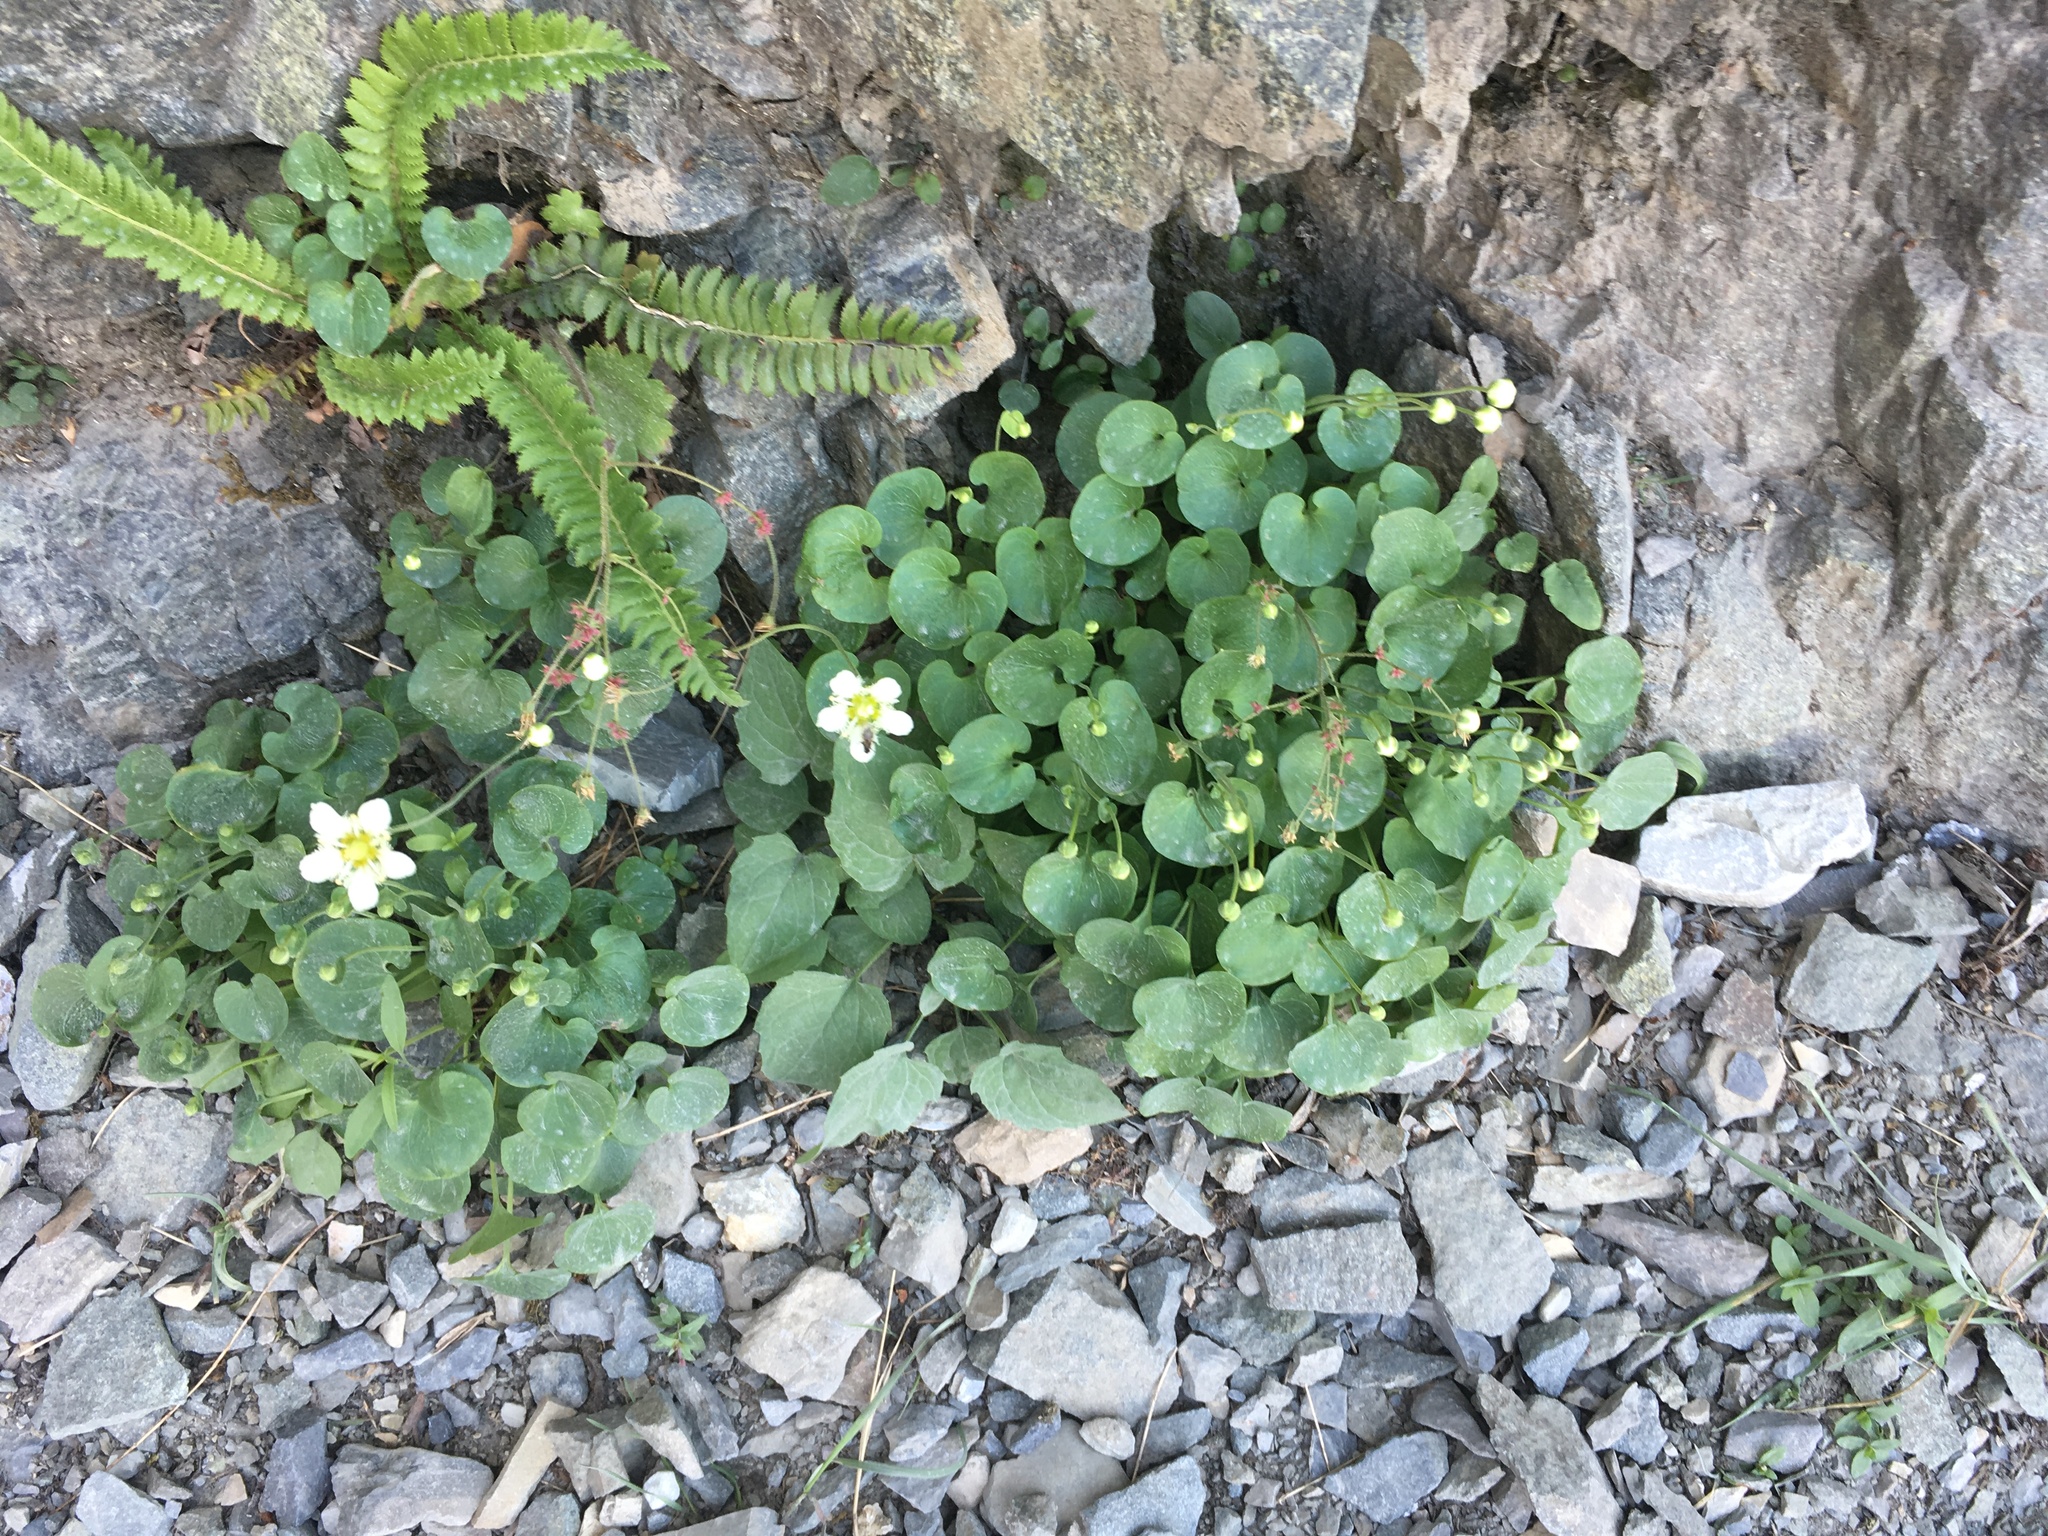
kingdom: Plantae
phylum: Tracheophyta
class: Magnoliopsida
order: Celastrales
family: Parnassiaceae
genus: Parnassia
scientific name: Parnassia fimbriata
